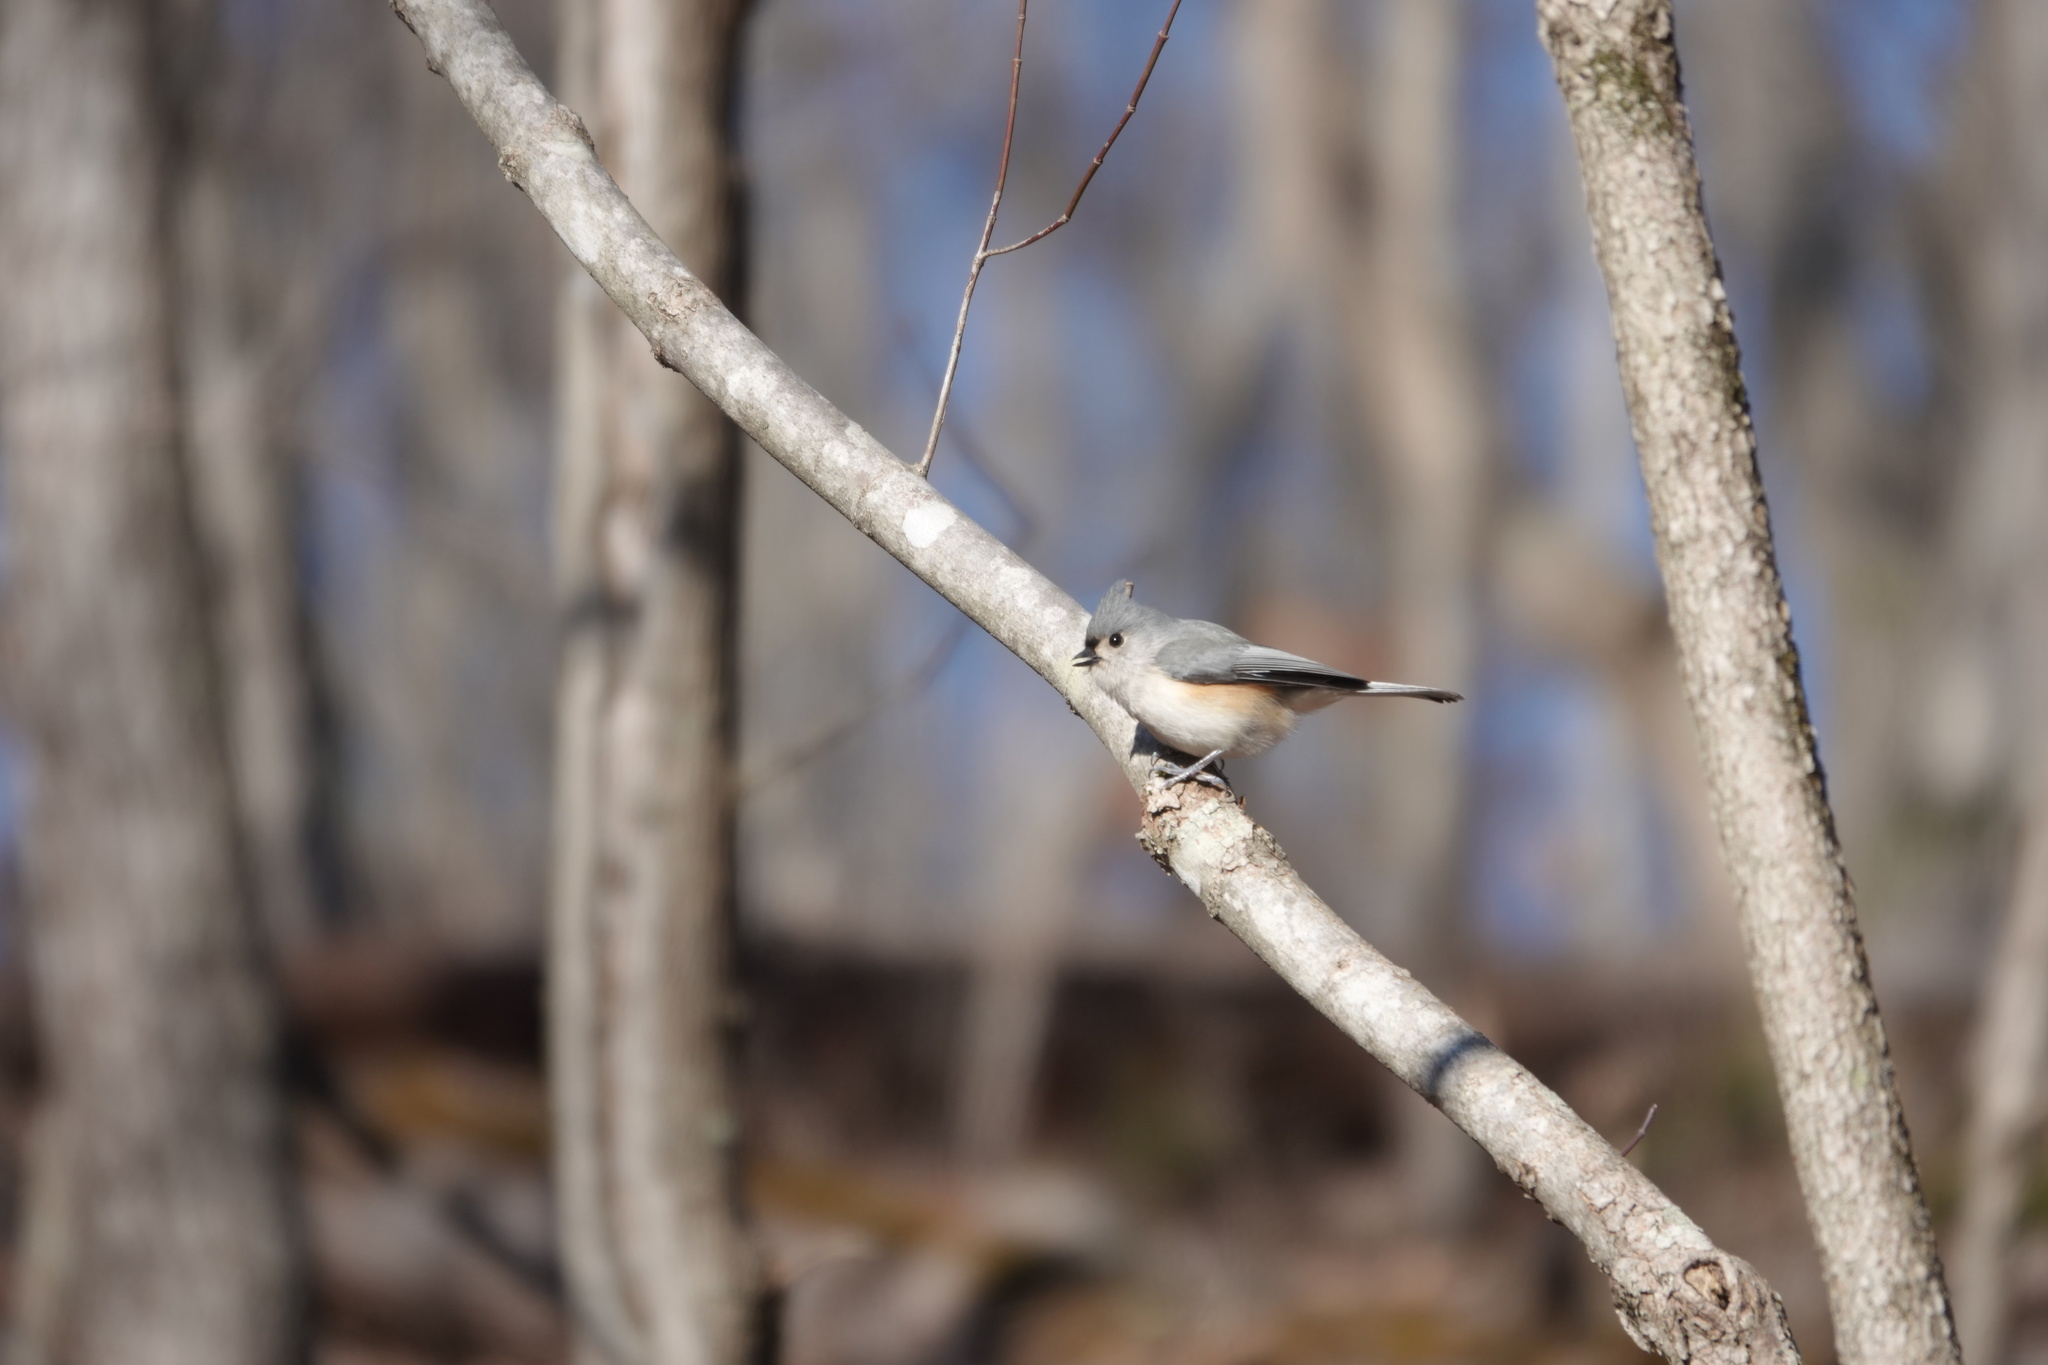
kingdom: Animalia
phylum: Chordata
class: Aves
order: Passeriformes
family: Paridae
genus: Baeolophus
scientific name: Baeolophus bicolor
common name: Tufted titmouse
